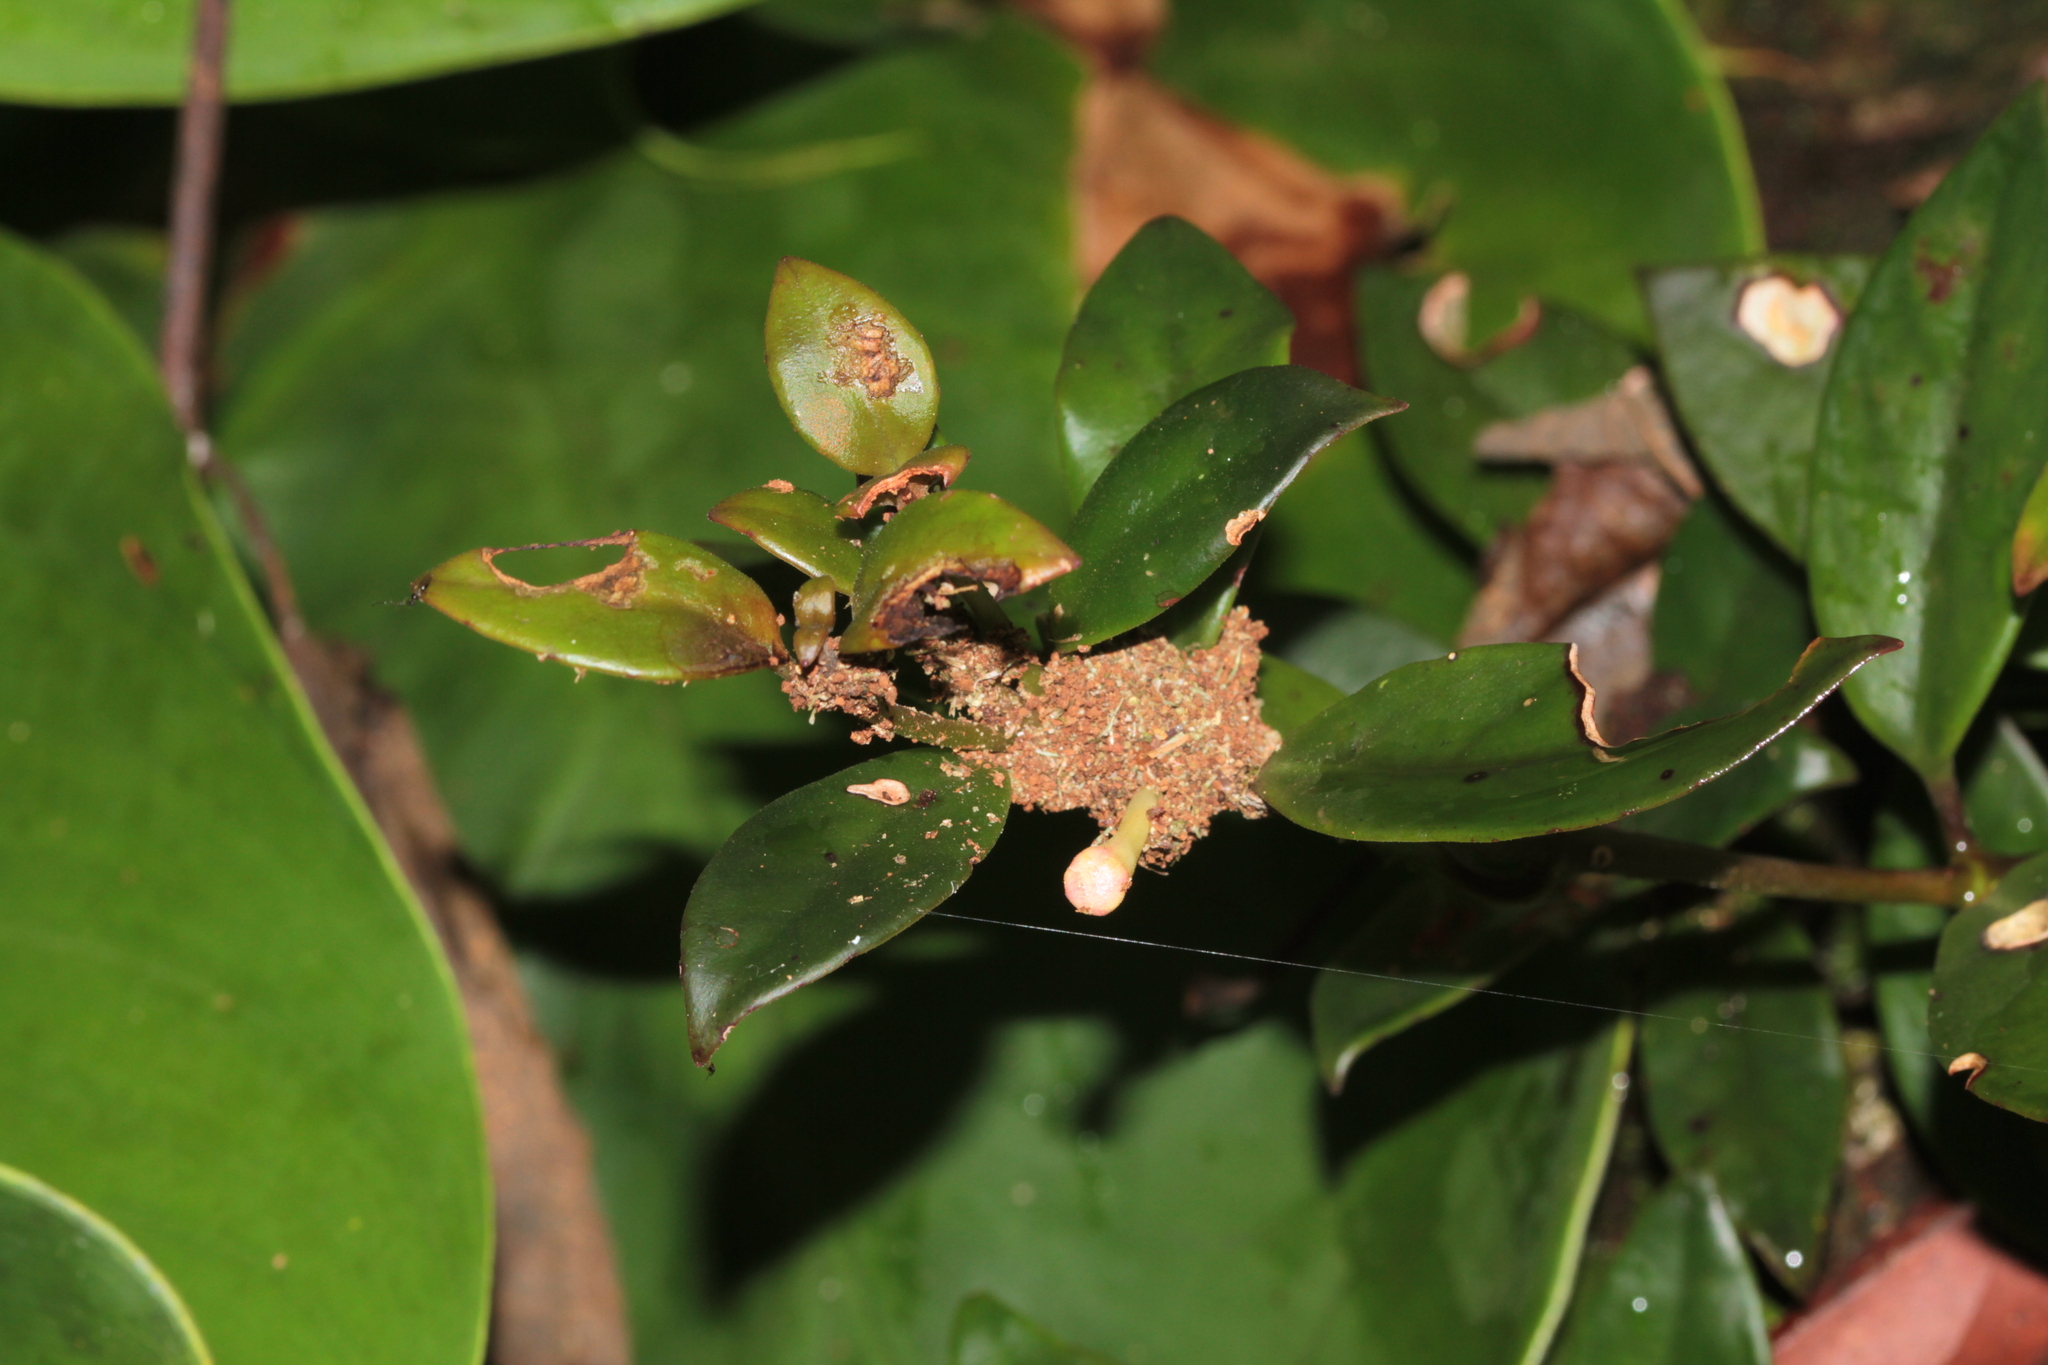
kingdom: Plantae
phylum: Tracheophyta
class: Magnoliopsida
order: Lamiales
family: Gesneriaceae
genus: Codonanthopsis
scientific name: Codonanthopsis crassifolia
